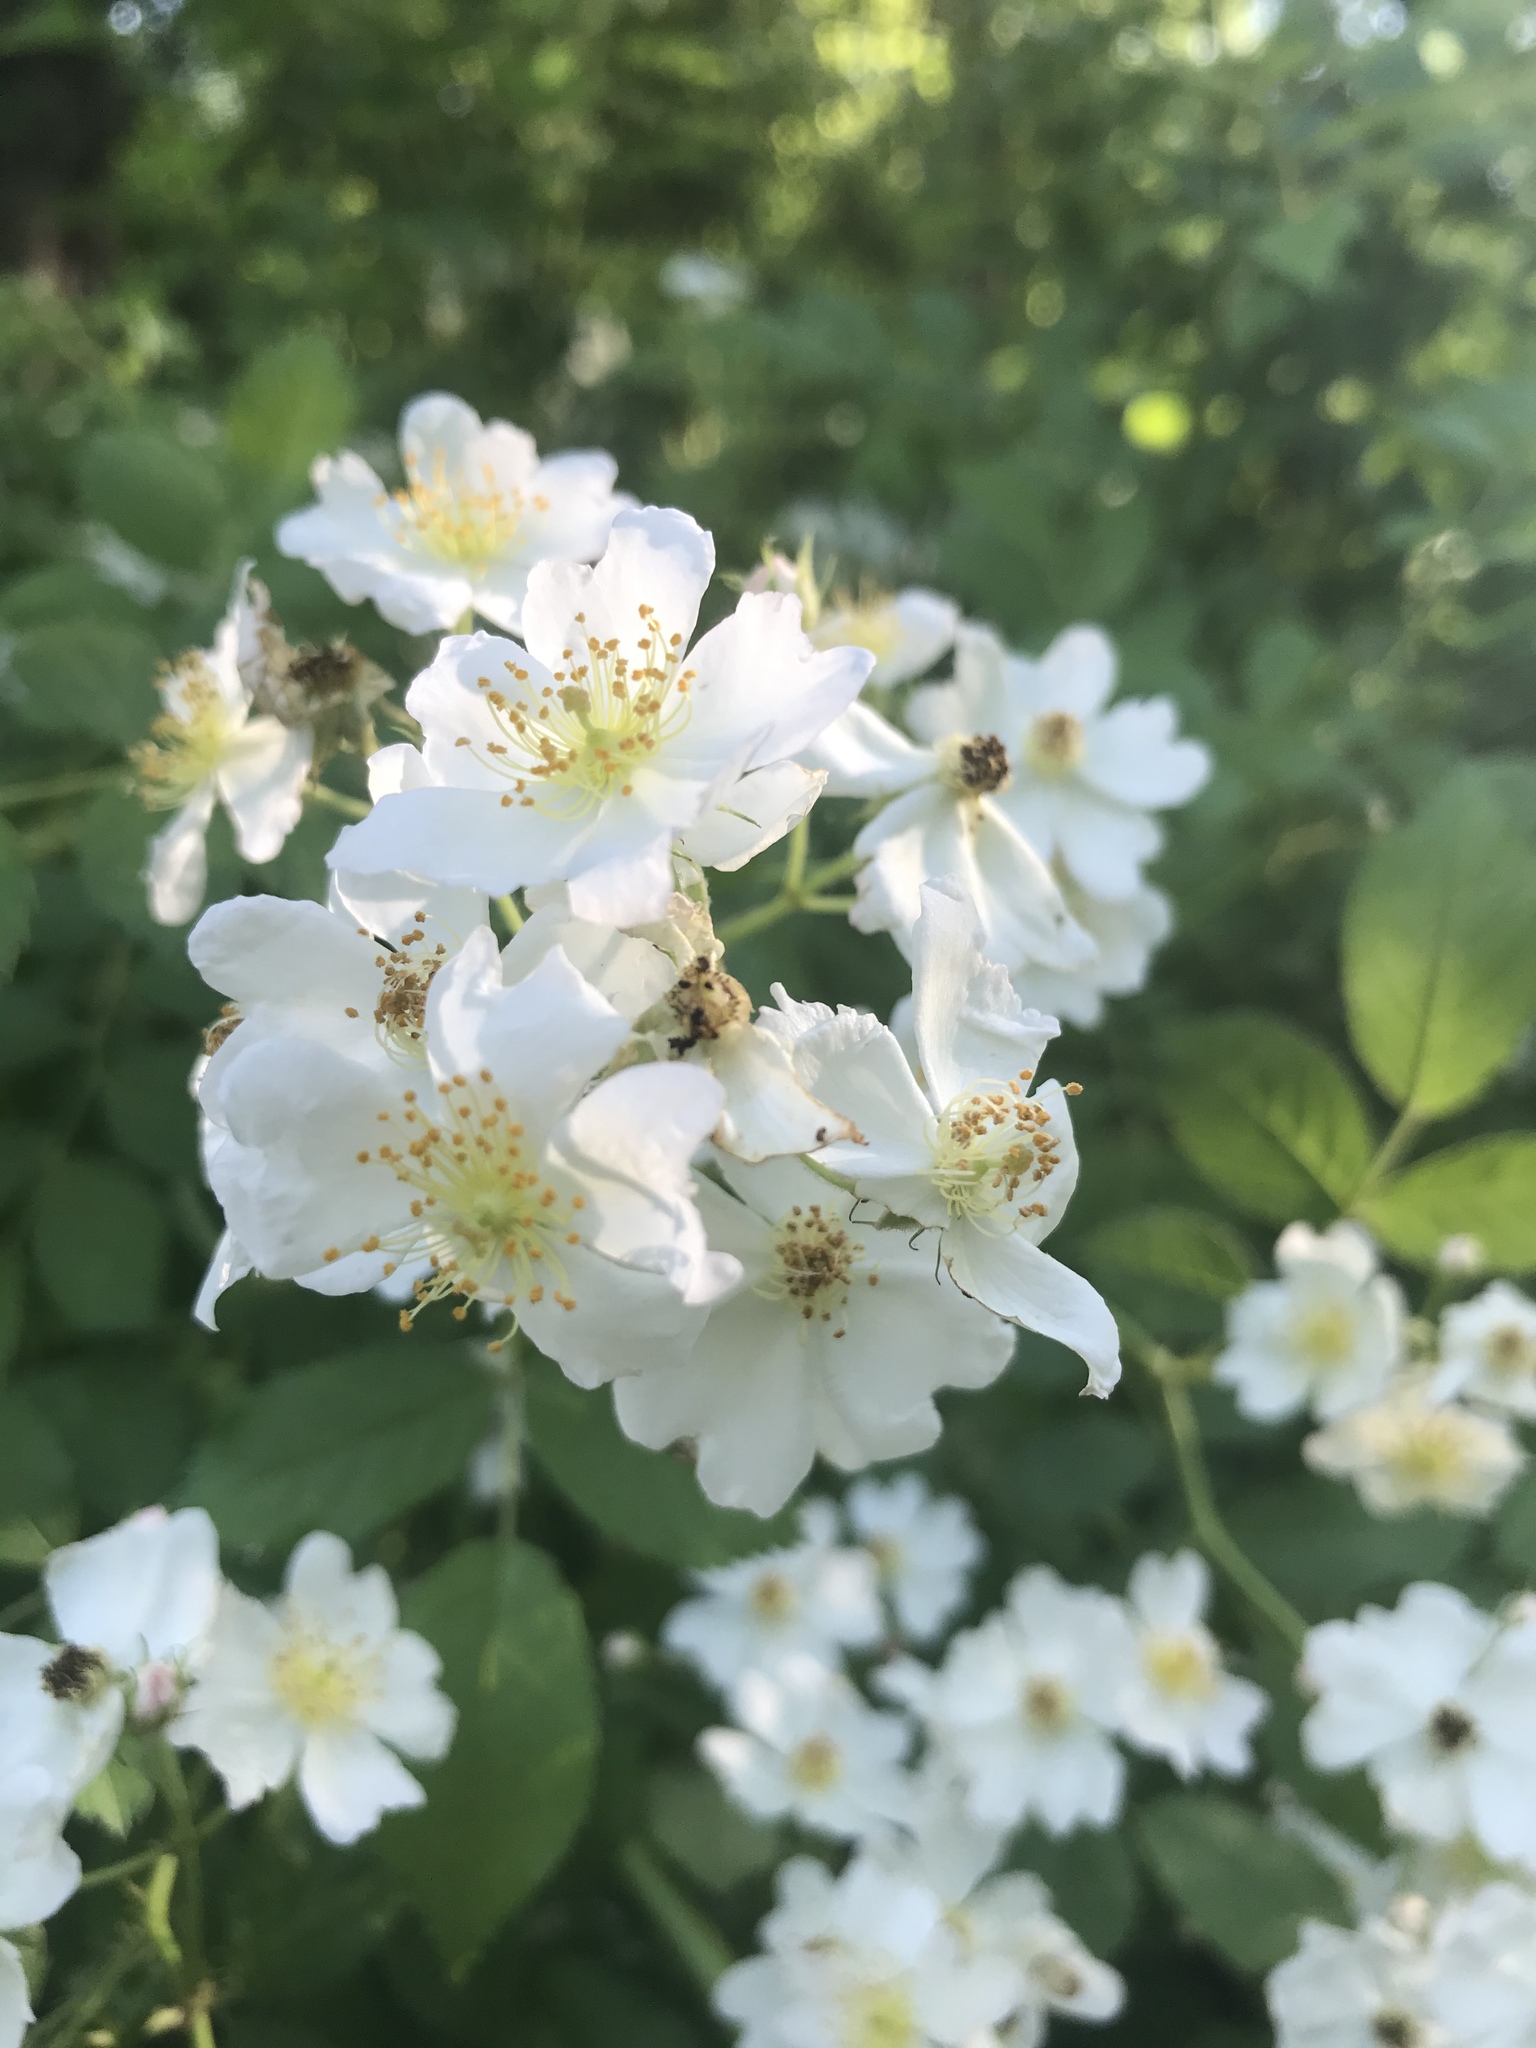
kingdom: Plantae
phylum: Tracheophyta
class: Magnoliopsida
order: Rosales
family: Rosaceae
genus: Rosa
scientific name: Rosa multiflora
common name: Multiflora rose
